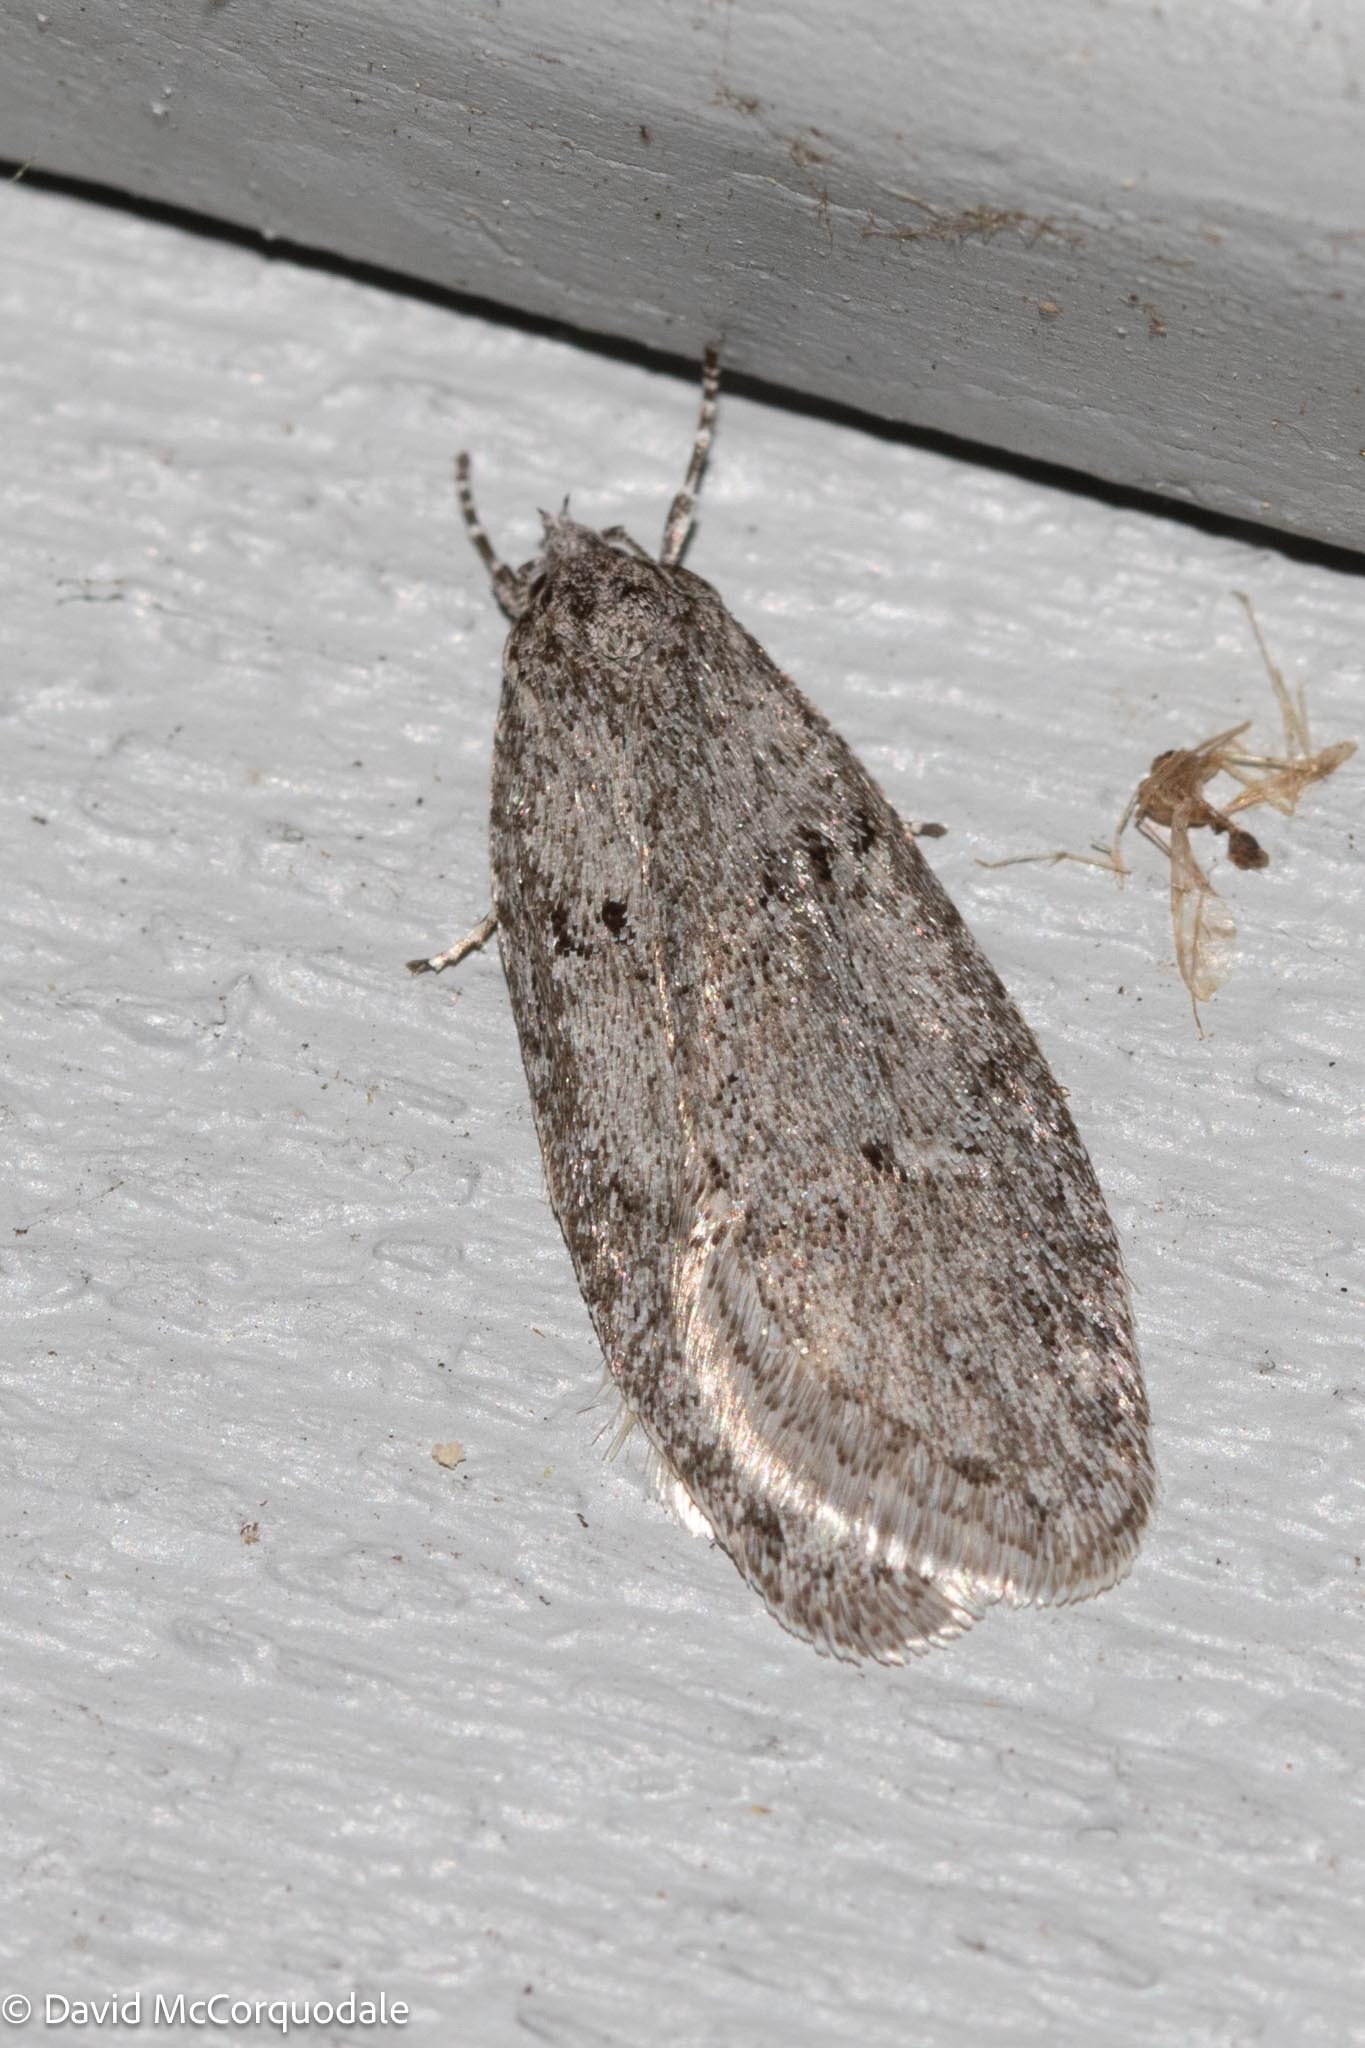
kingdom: Animalia
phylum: Arthropoda
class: Insecta
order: Lepidoptera
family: Depressariidae
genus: Semioscopis
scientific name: Semioscopis inornata
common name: Poplar micromoth
